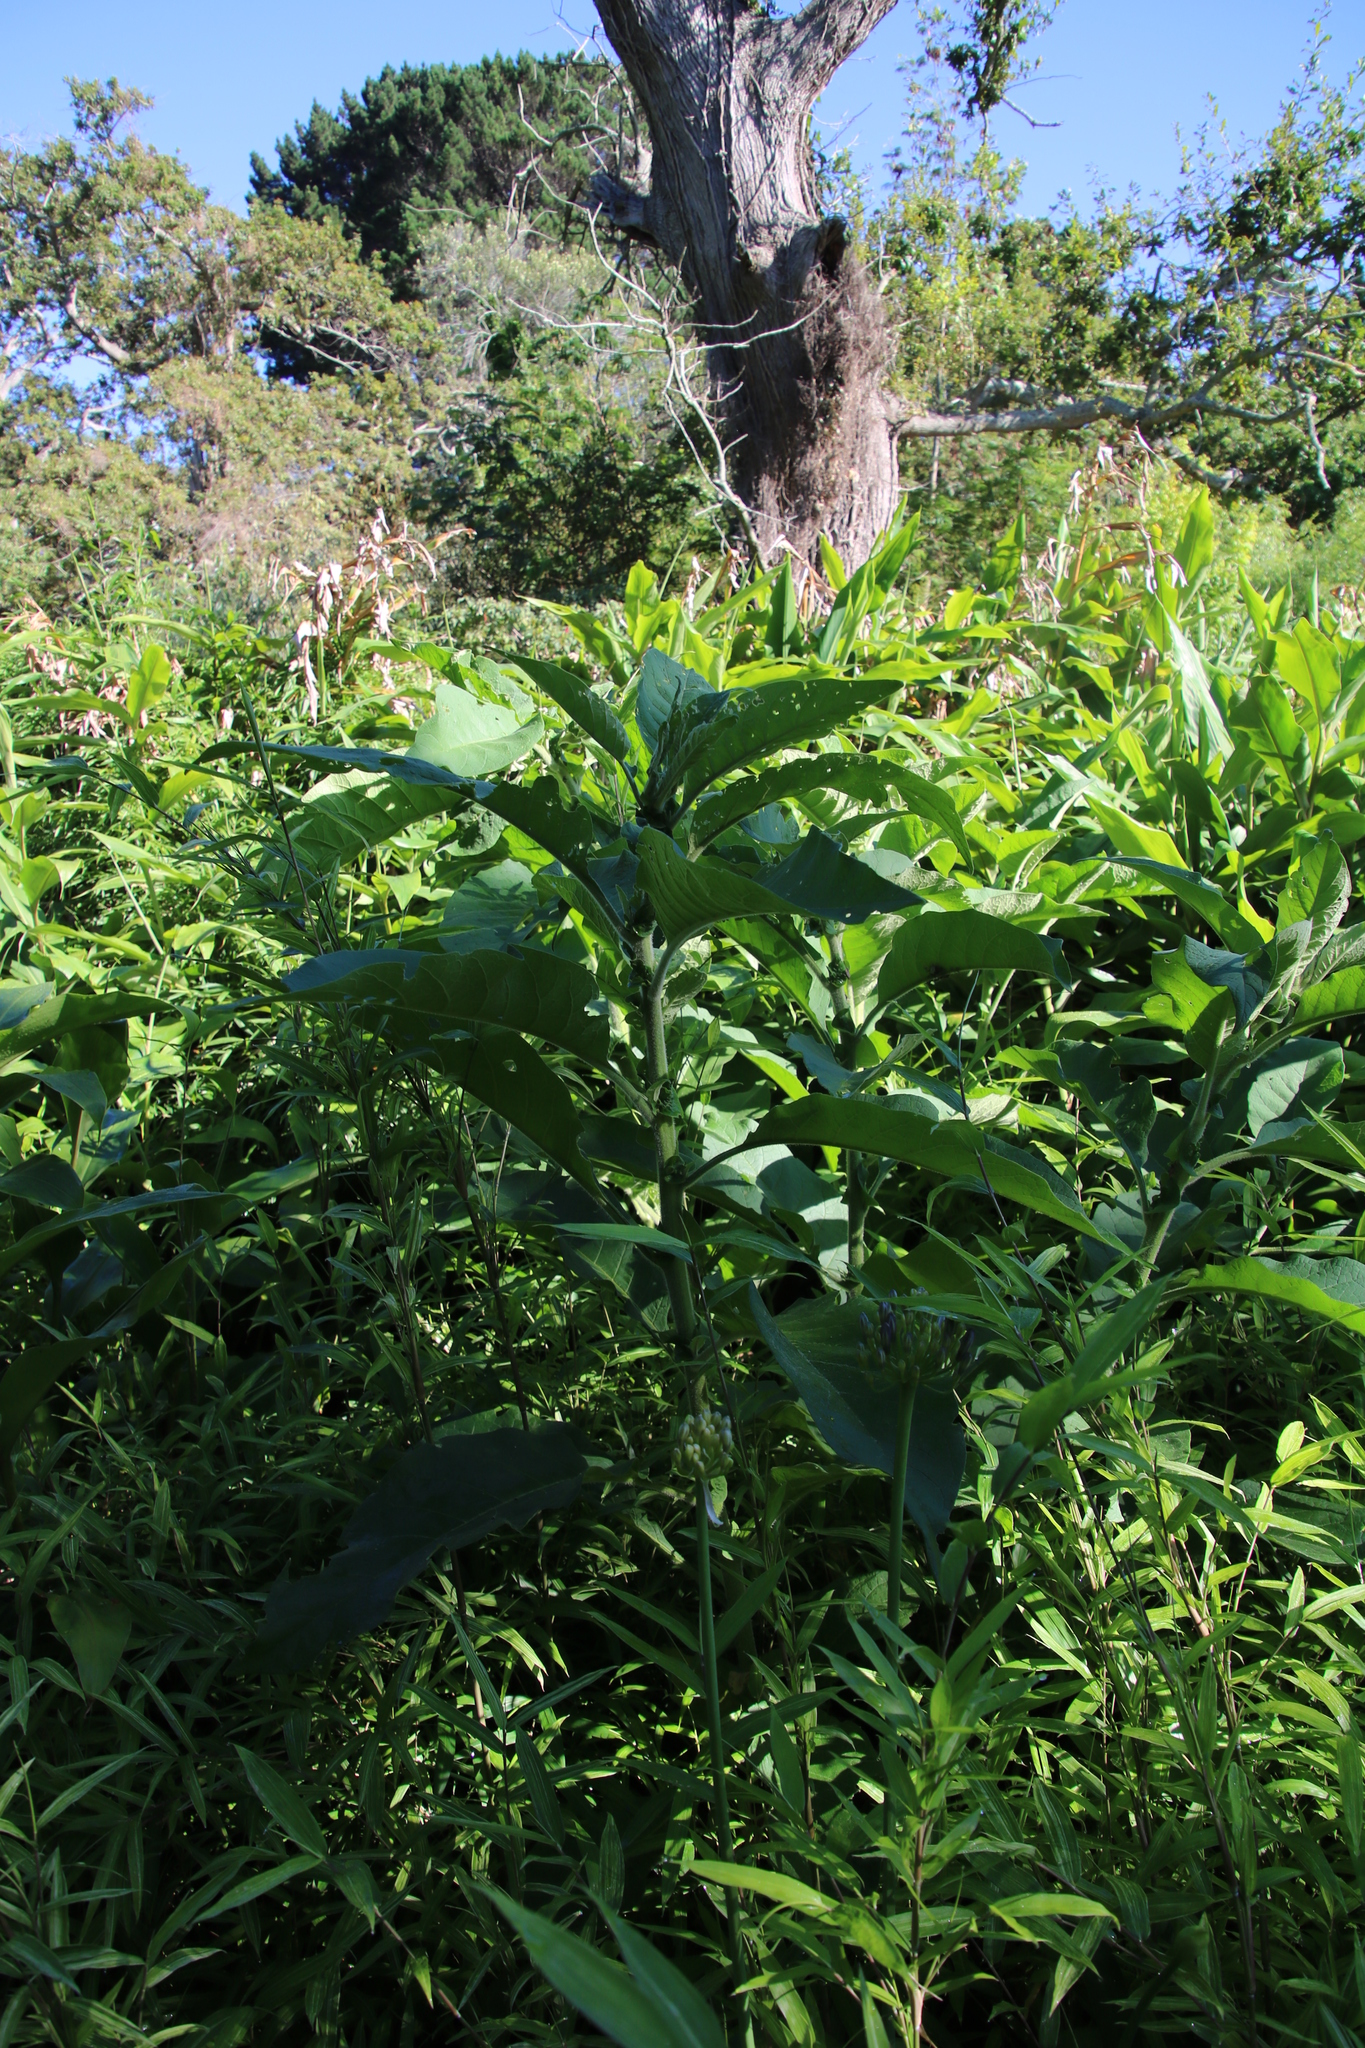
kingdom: Plantae
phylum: Tracheophyta
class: Magnoliopsida
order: Solanales
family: Solanaceae
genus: Solanum
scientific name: Solanum mauritianum
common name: Earleaf nightshade
